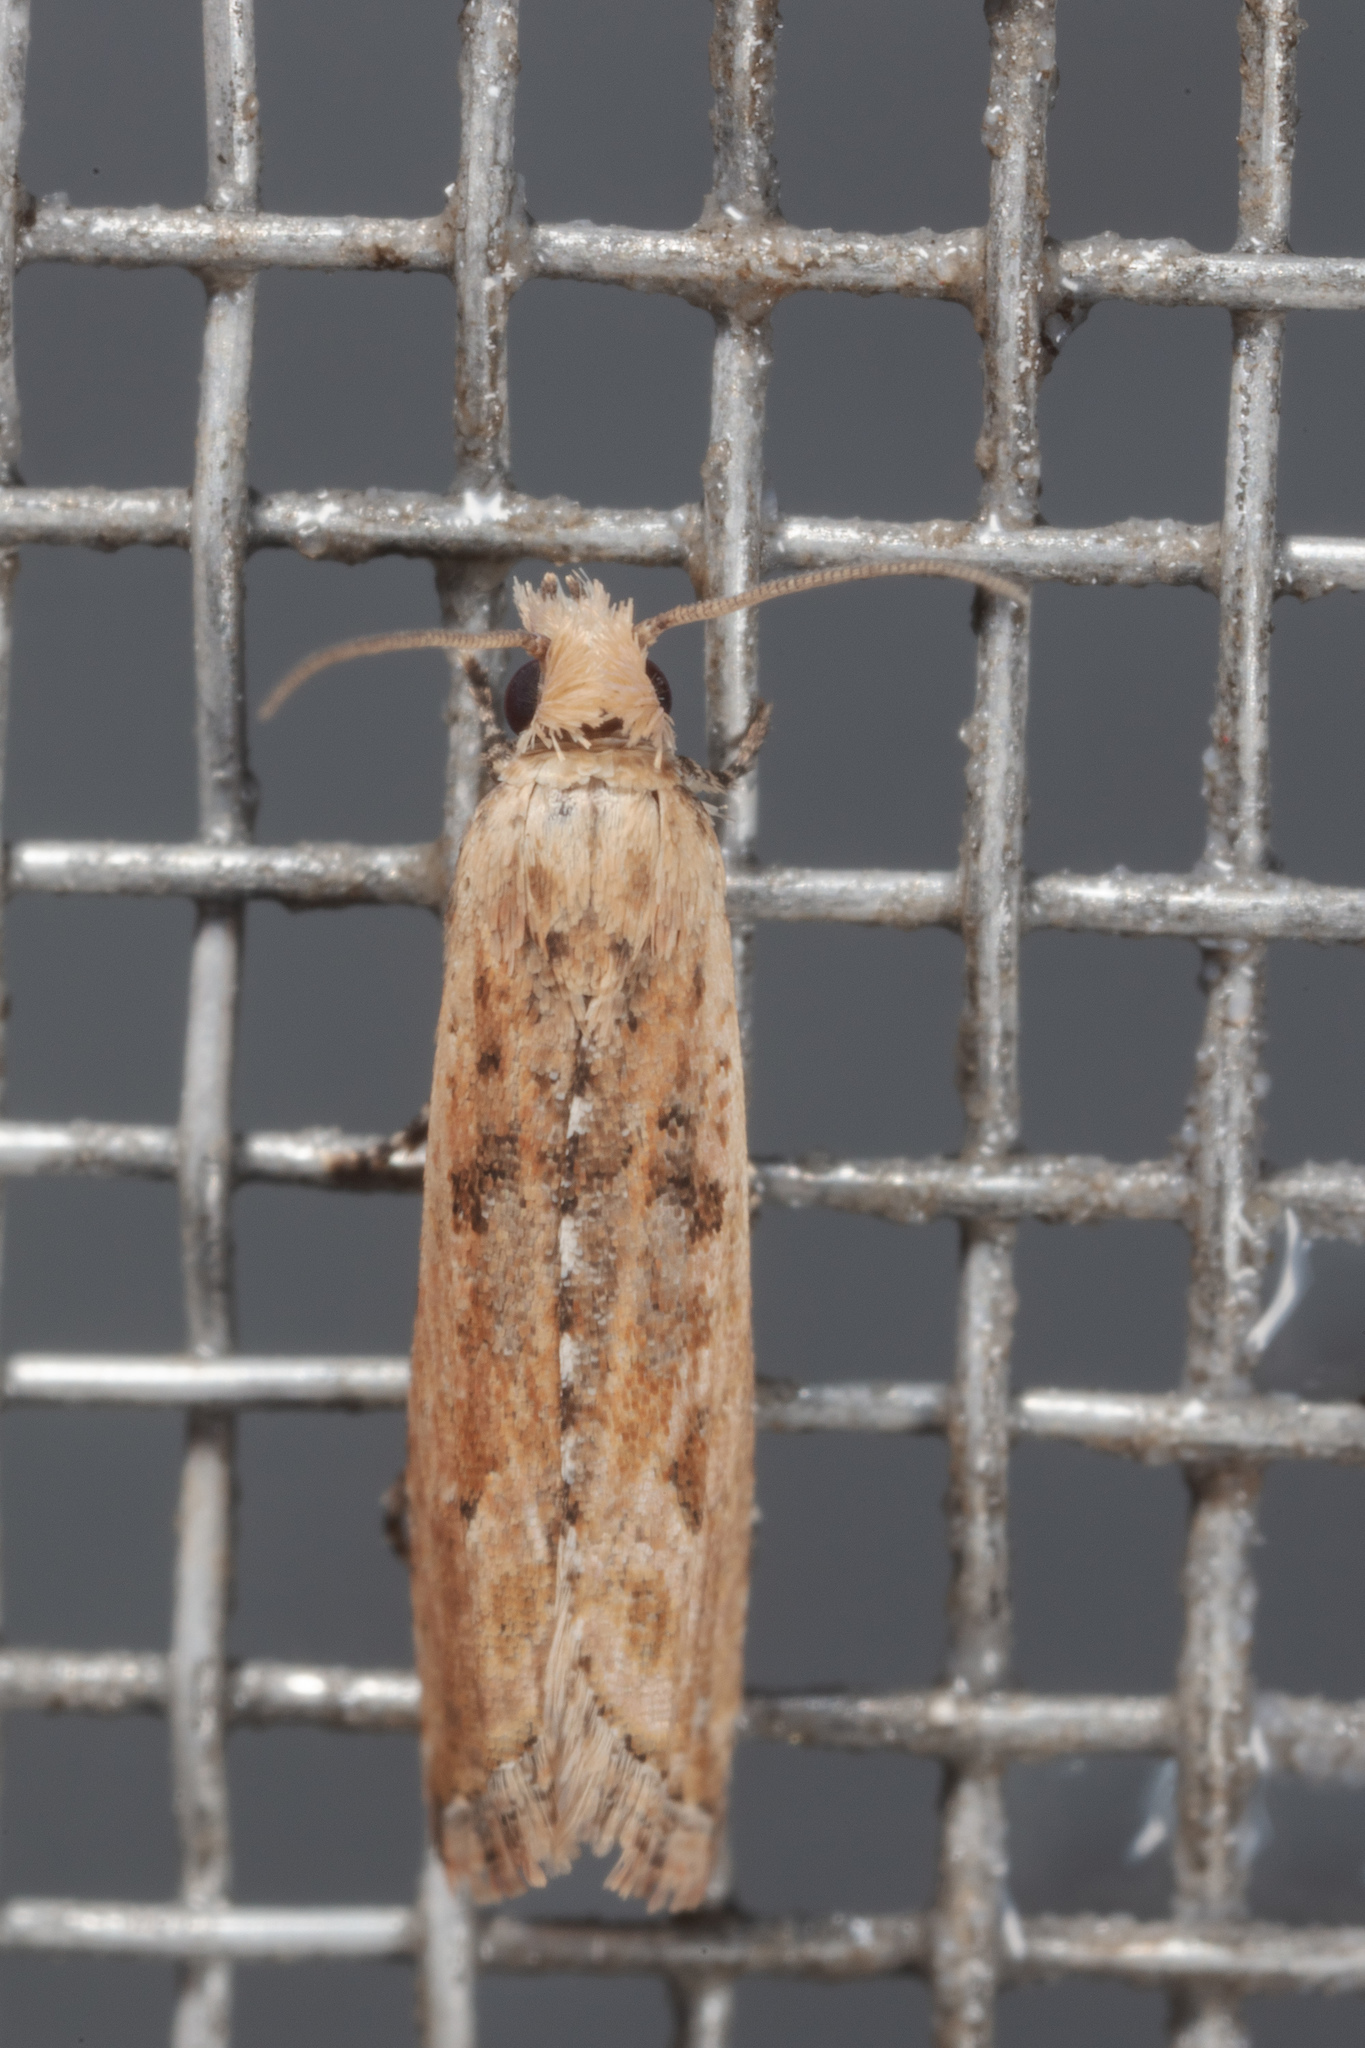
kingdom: Animalia
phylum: Arthropoda
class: Insecta
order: Lepidoptera
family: Tortricidae
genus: Bactra
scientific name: Bactra verutana
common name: Javelin moth
